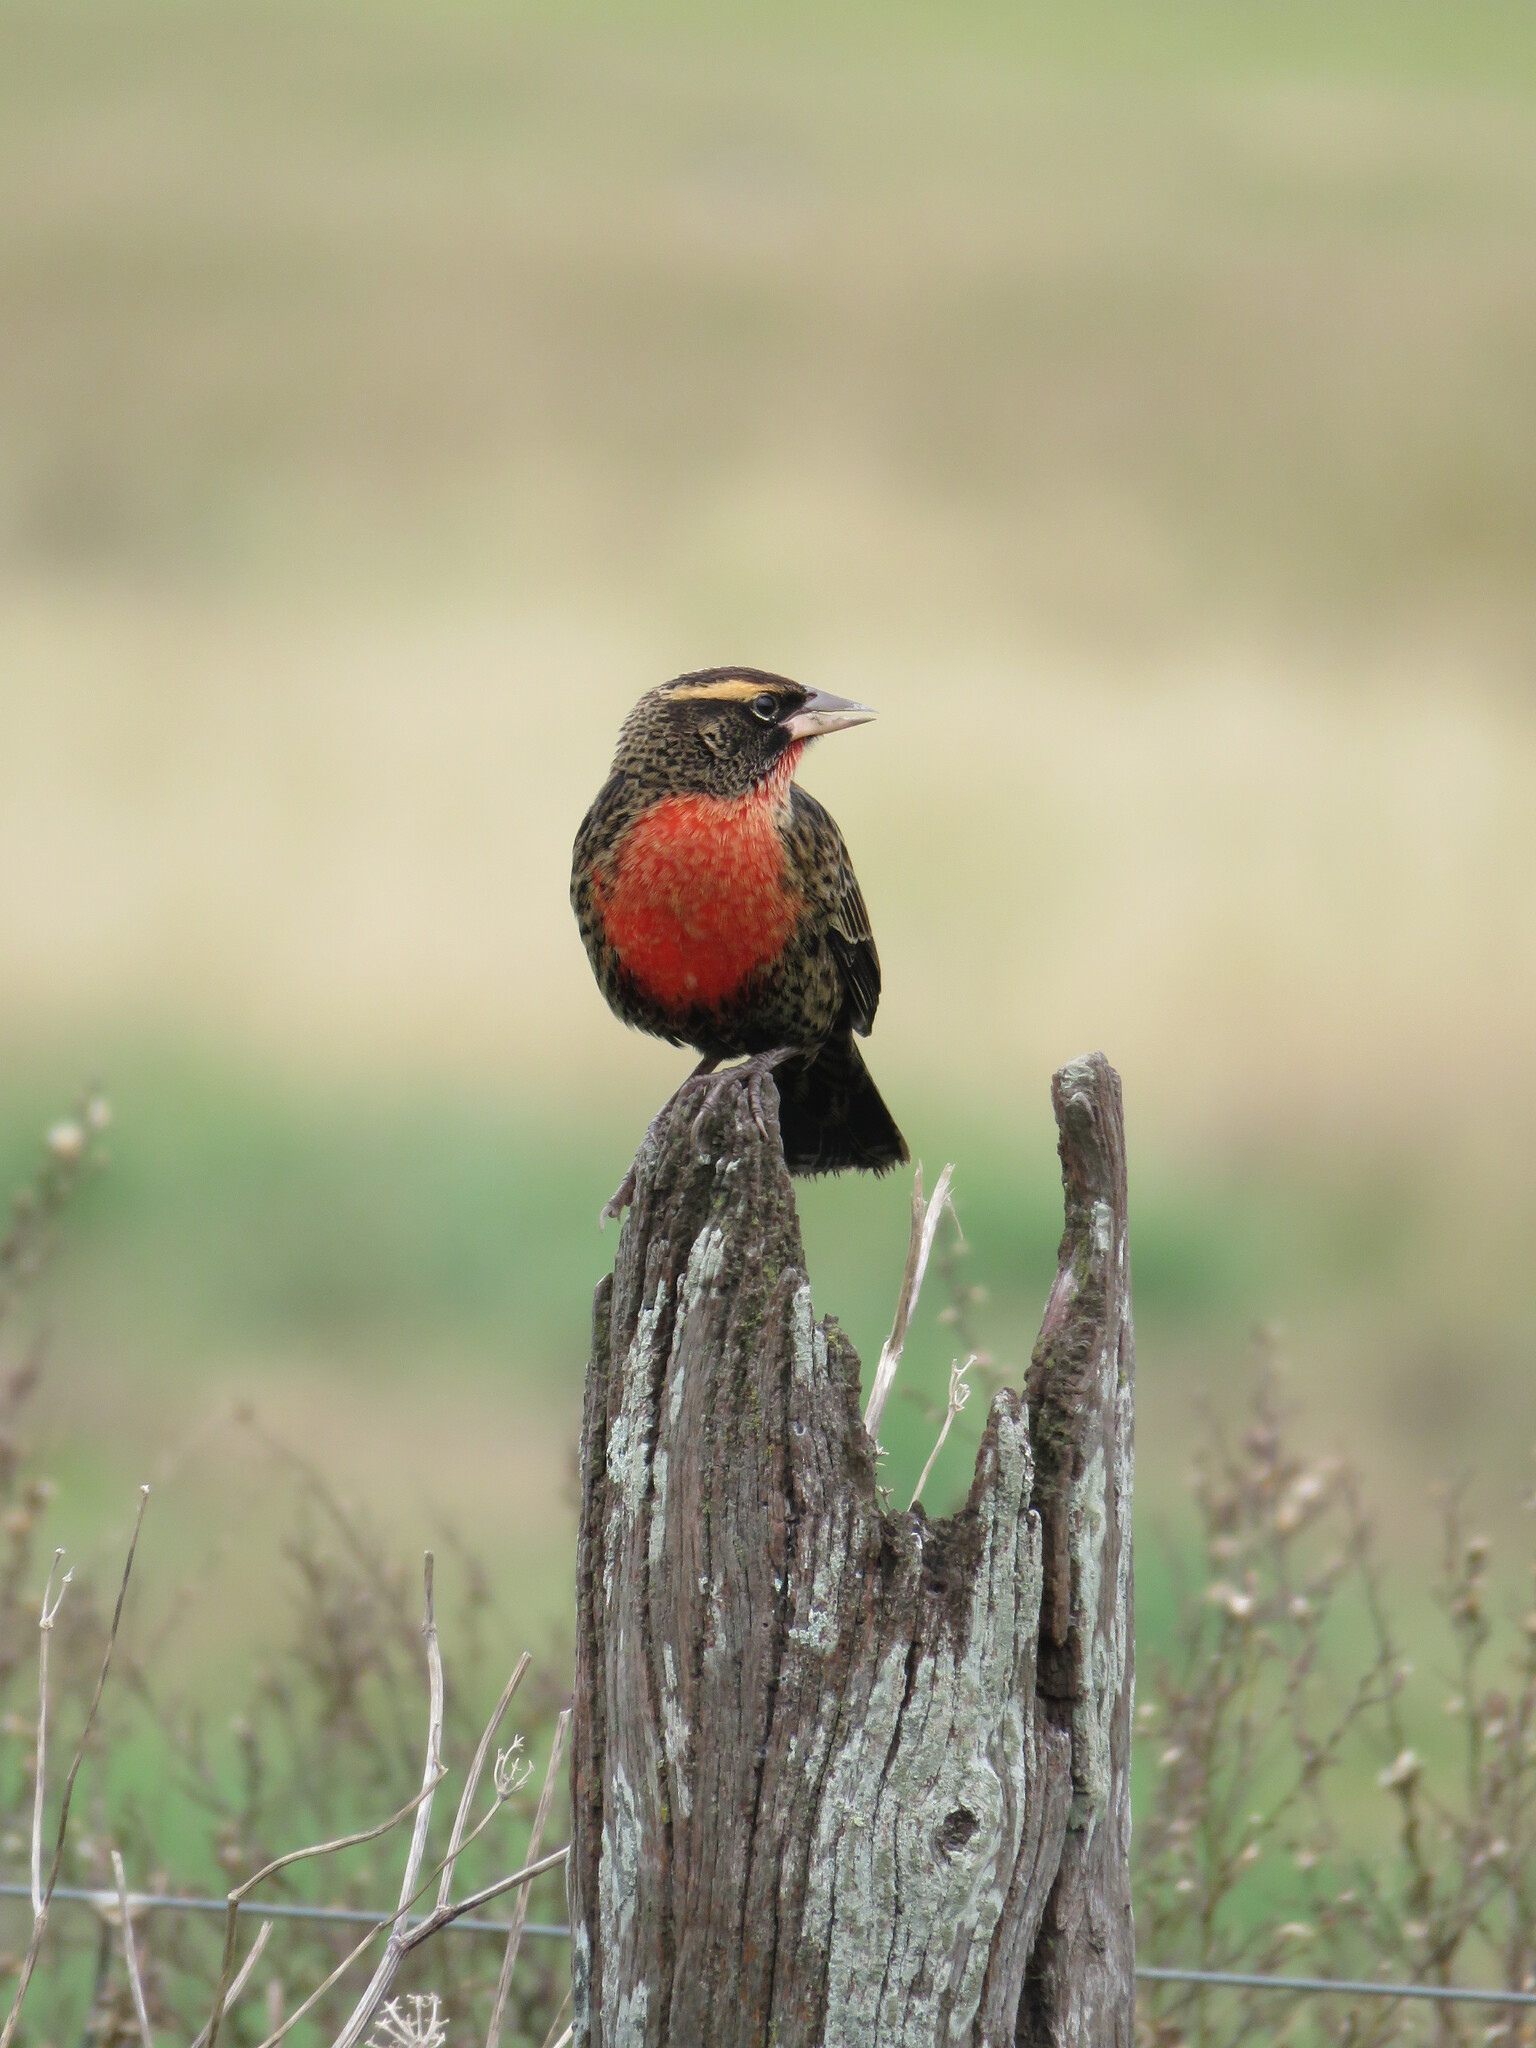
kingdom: Animalia
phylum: Chordata
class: Aves
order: Passeriformes
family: Icteridae
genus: Sturnella
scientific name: Sturnella superciliaris
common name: White-browed blackbird
